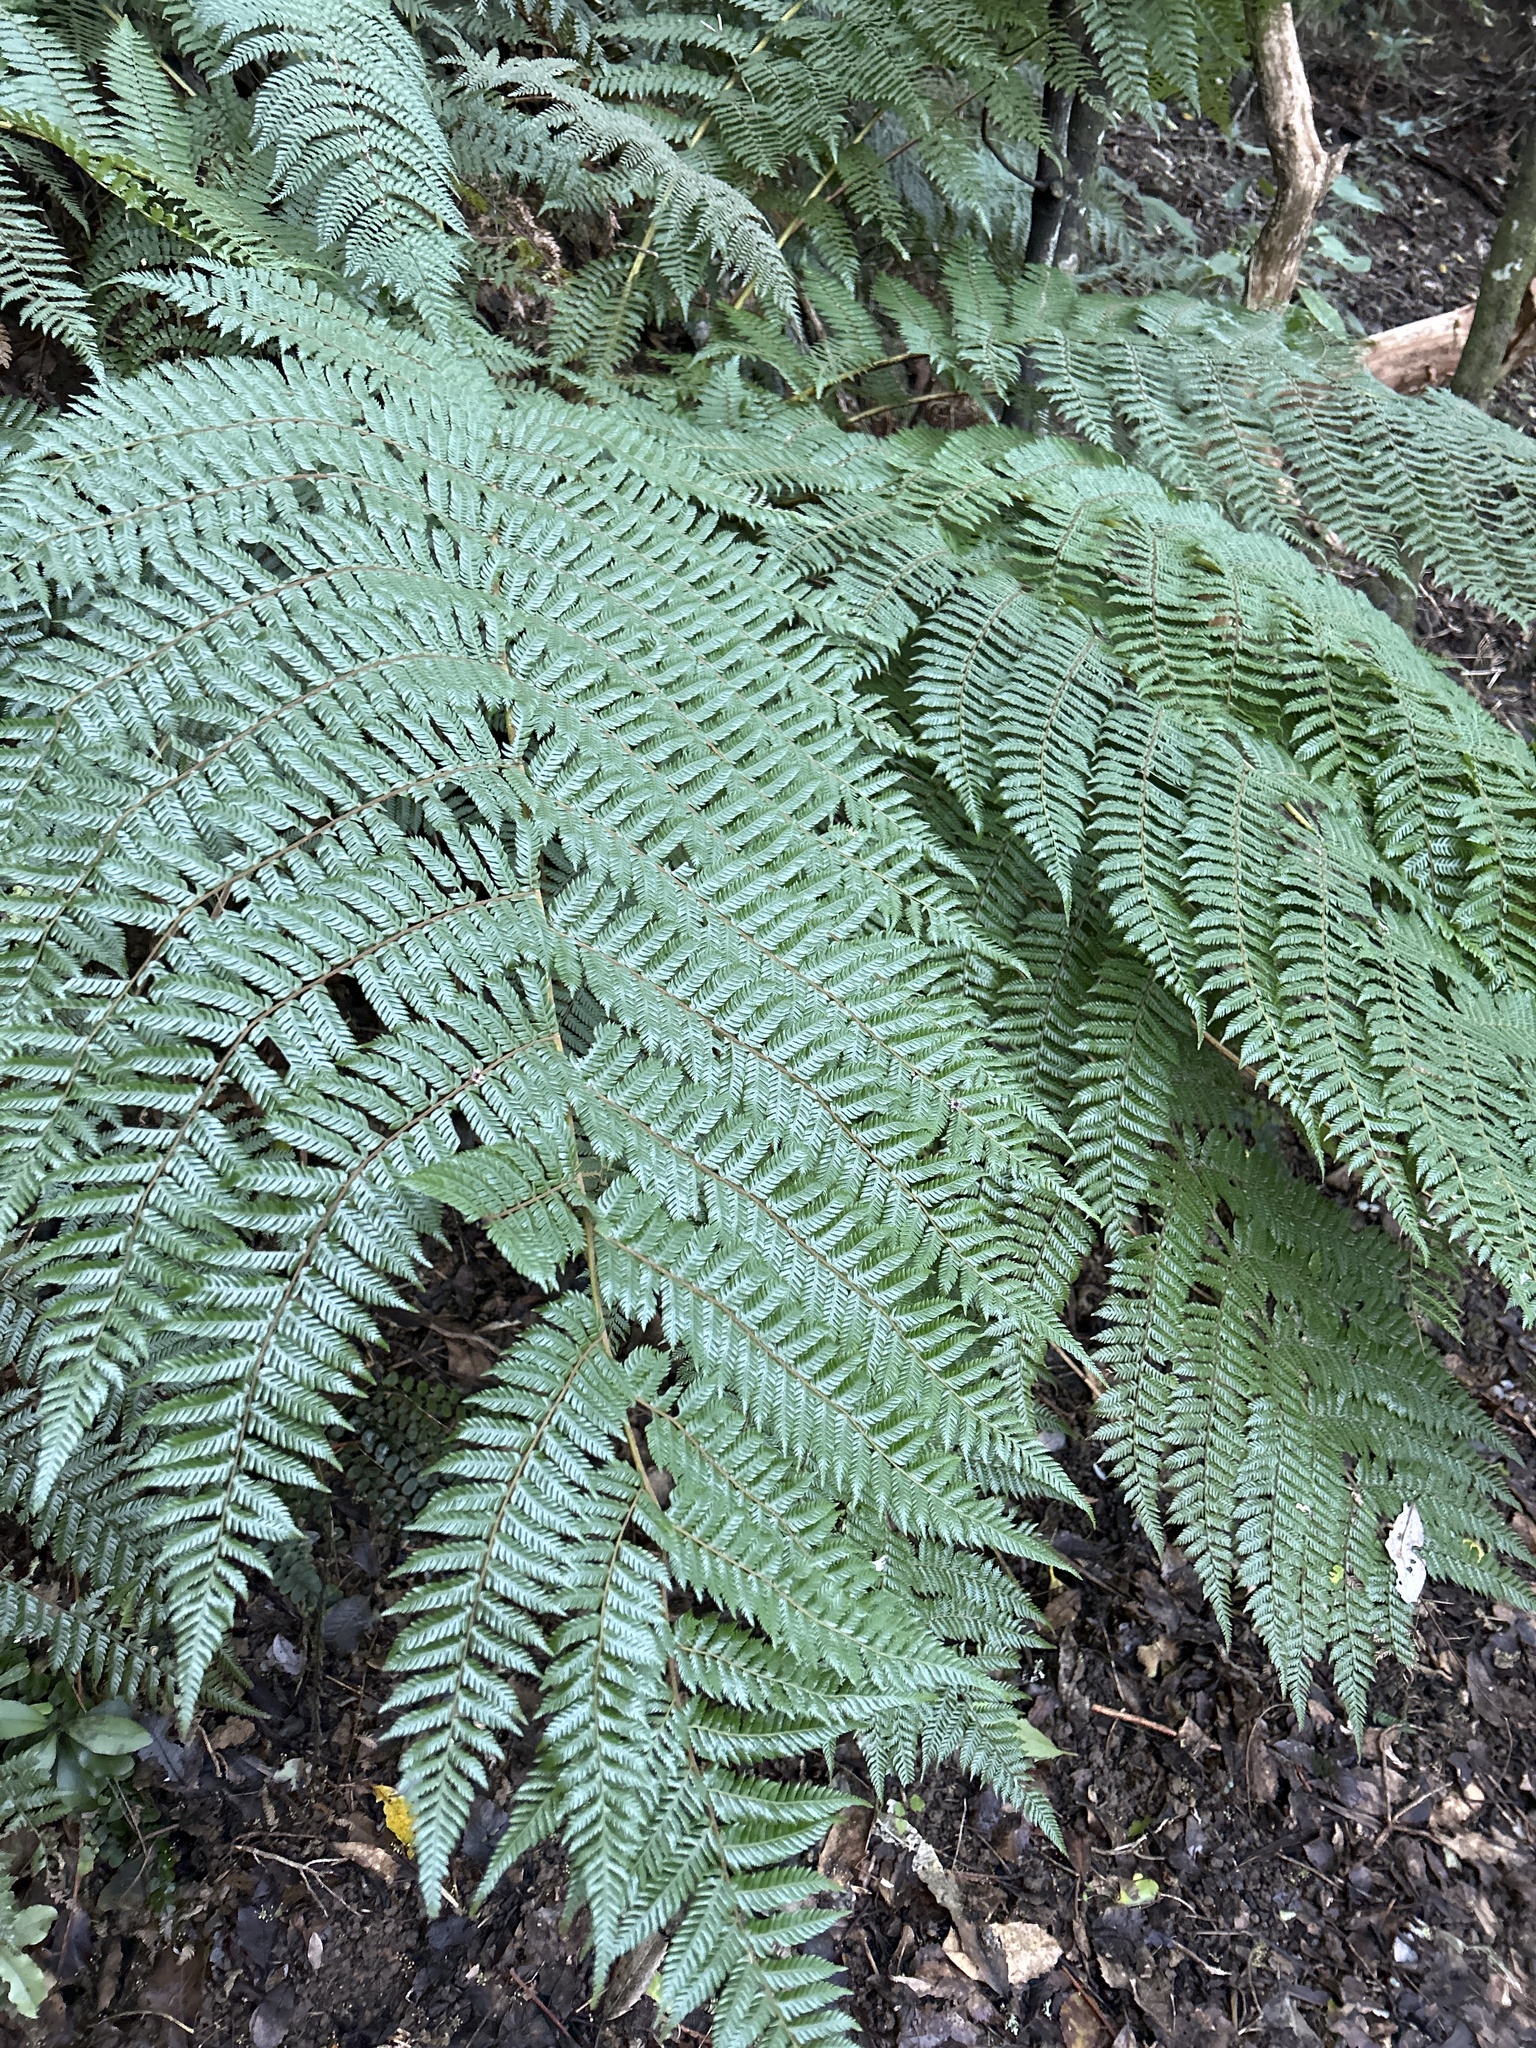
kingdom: Plantae
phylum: Tracheophyta
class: Polypodiopsida
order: Cyatheales
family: Cyatheaceae
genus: Alsophila
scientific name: Alsophila smithii
